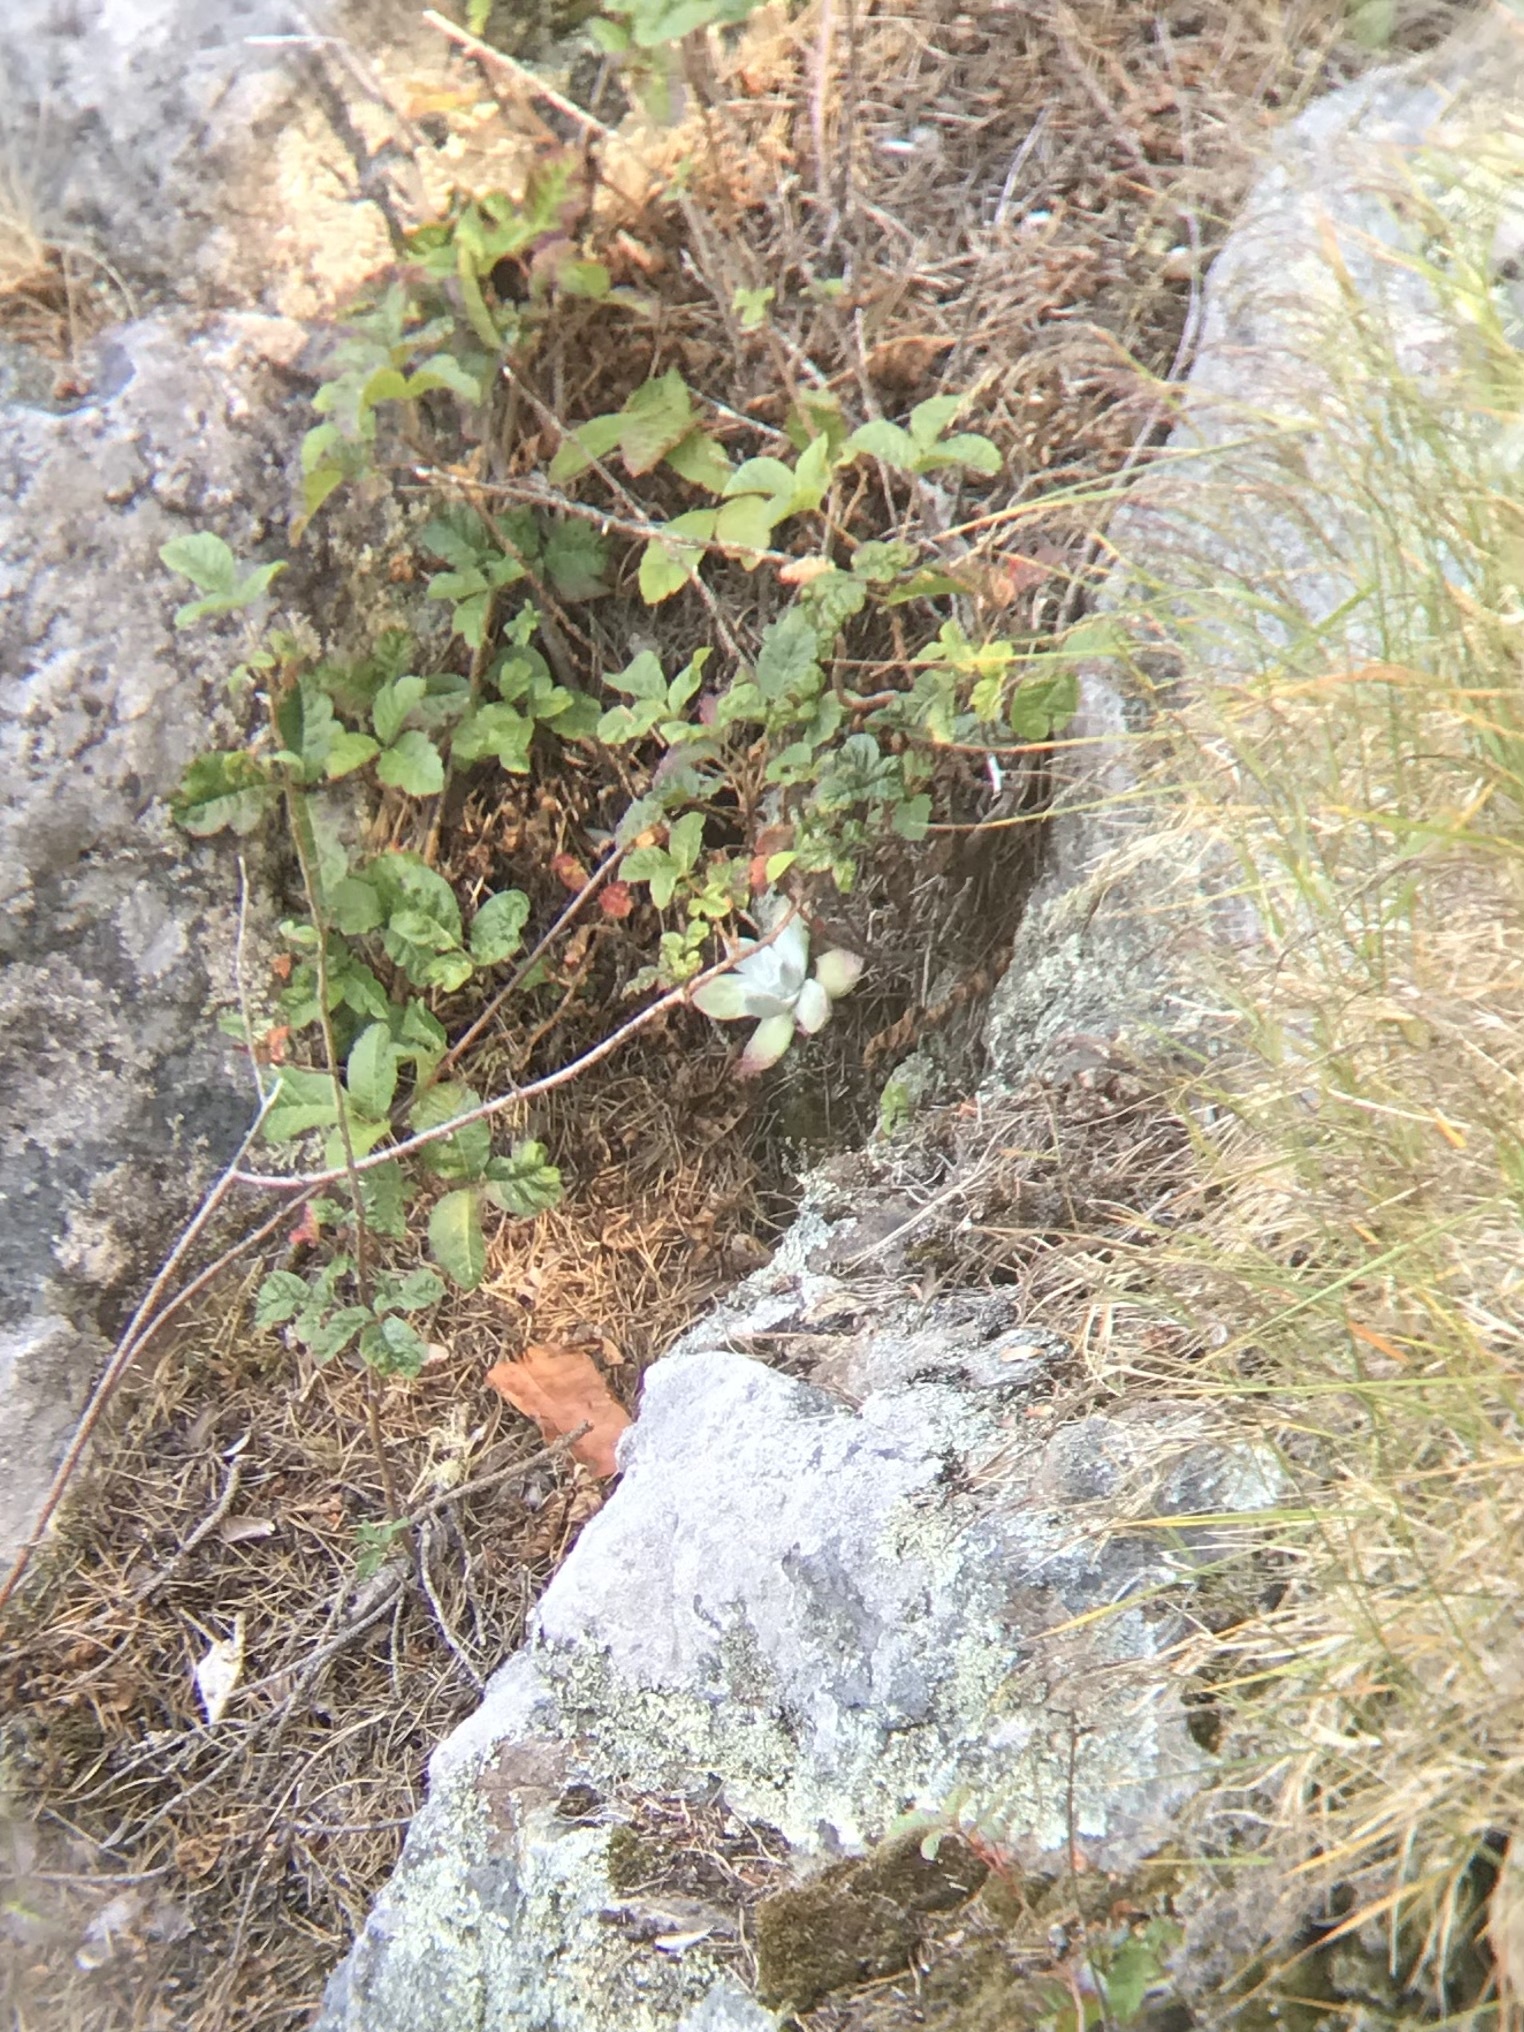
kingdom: Plantae
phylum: Tracheophyta
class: Magnoliopsida
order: Saxifragales
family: Crassulaceae
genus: Dudleya
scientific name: Dudleya farinosa
